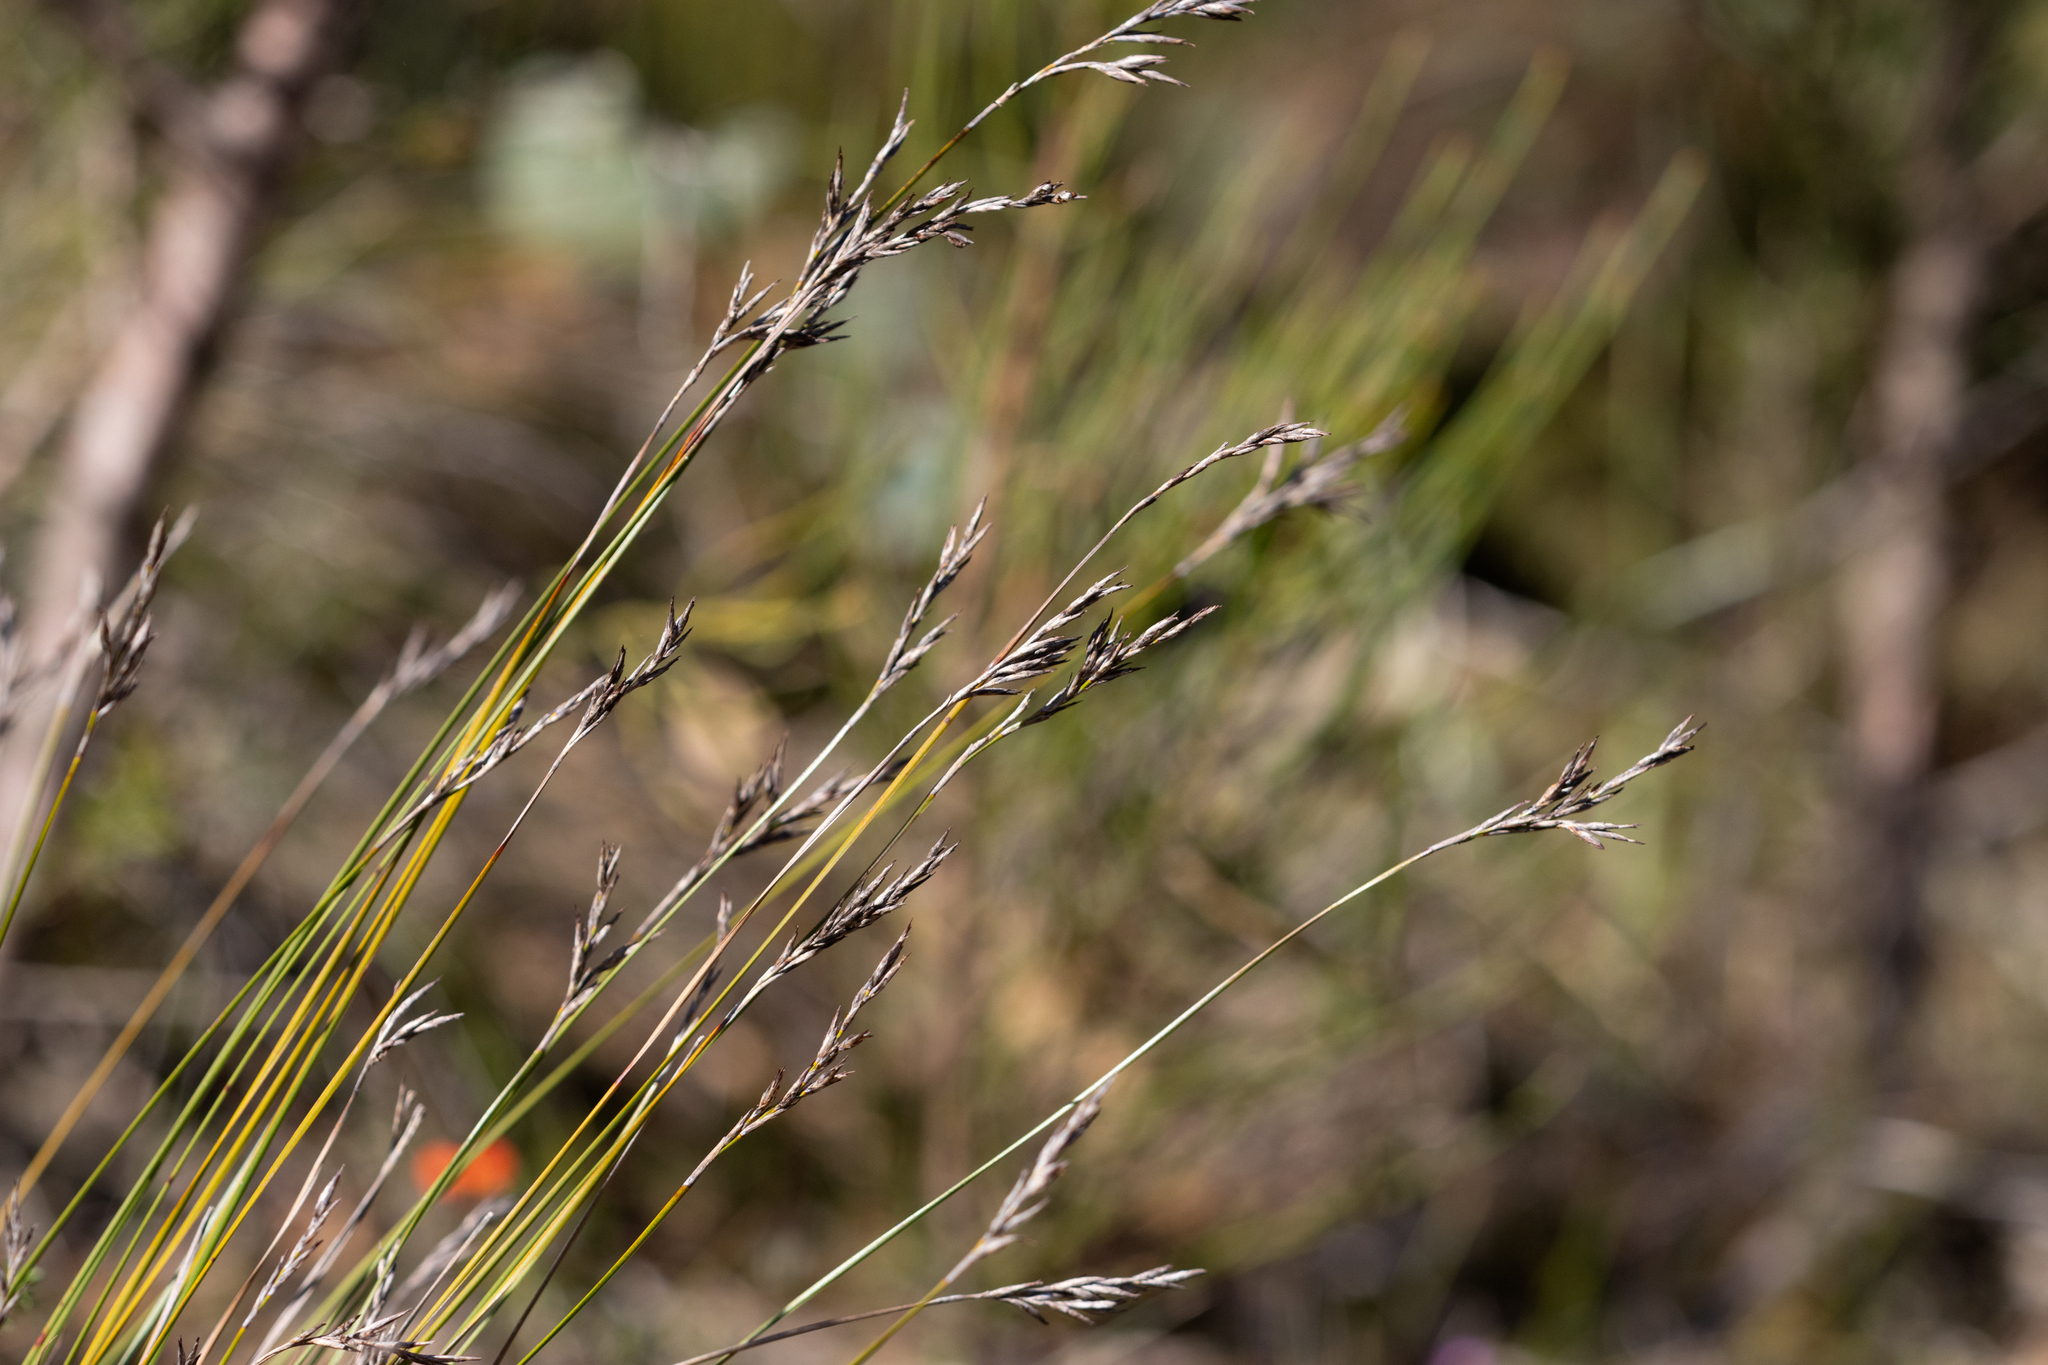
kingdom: Plantae
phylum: Tracheophyta
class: Liliopsida
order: Poales
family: Cyperaceae
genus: Lepidosperma
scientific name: Lepidosperma semiteres
